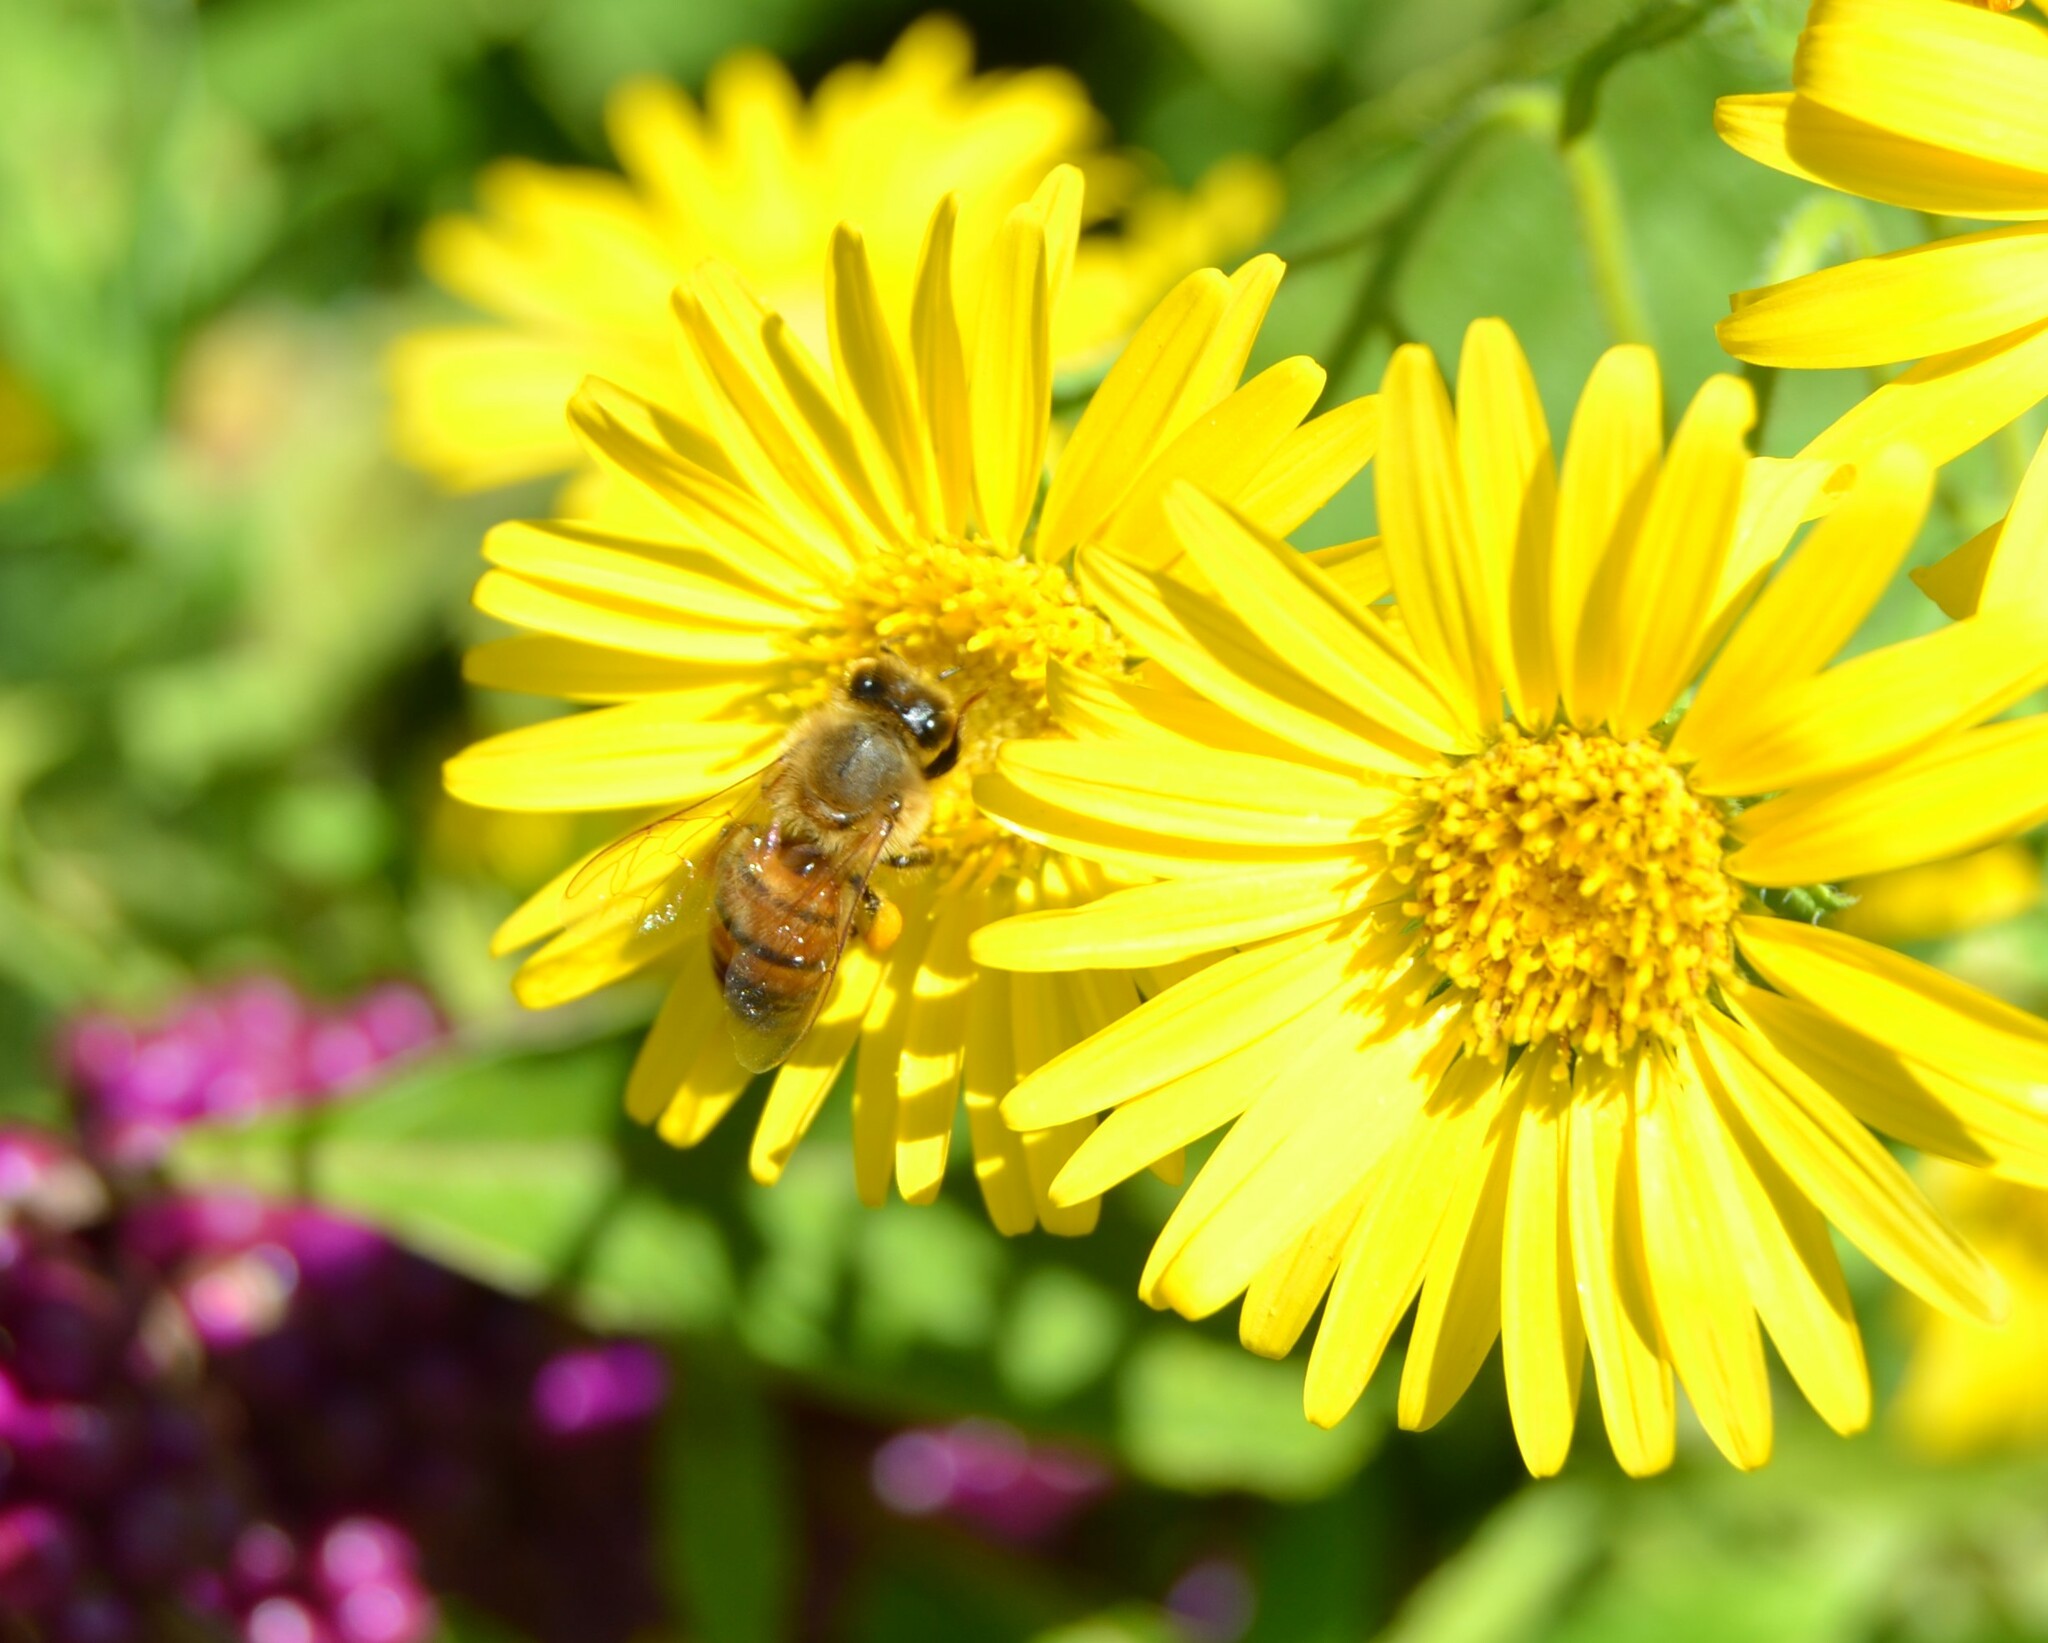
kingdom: Animalia
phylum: Arthropoda
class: Insecta
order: Hymenoptera
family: Apidae
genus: Apis
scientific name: Apis mellifera
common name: Honey bee
